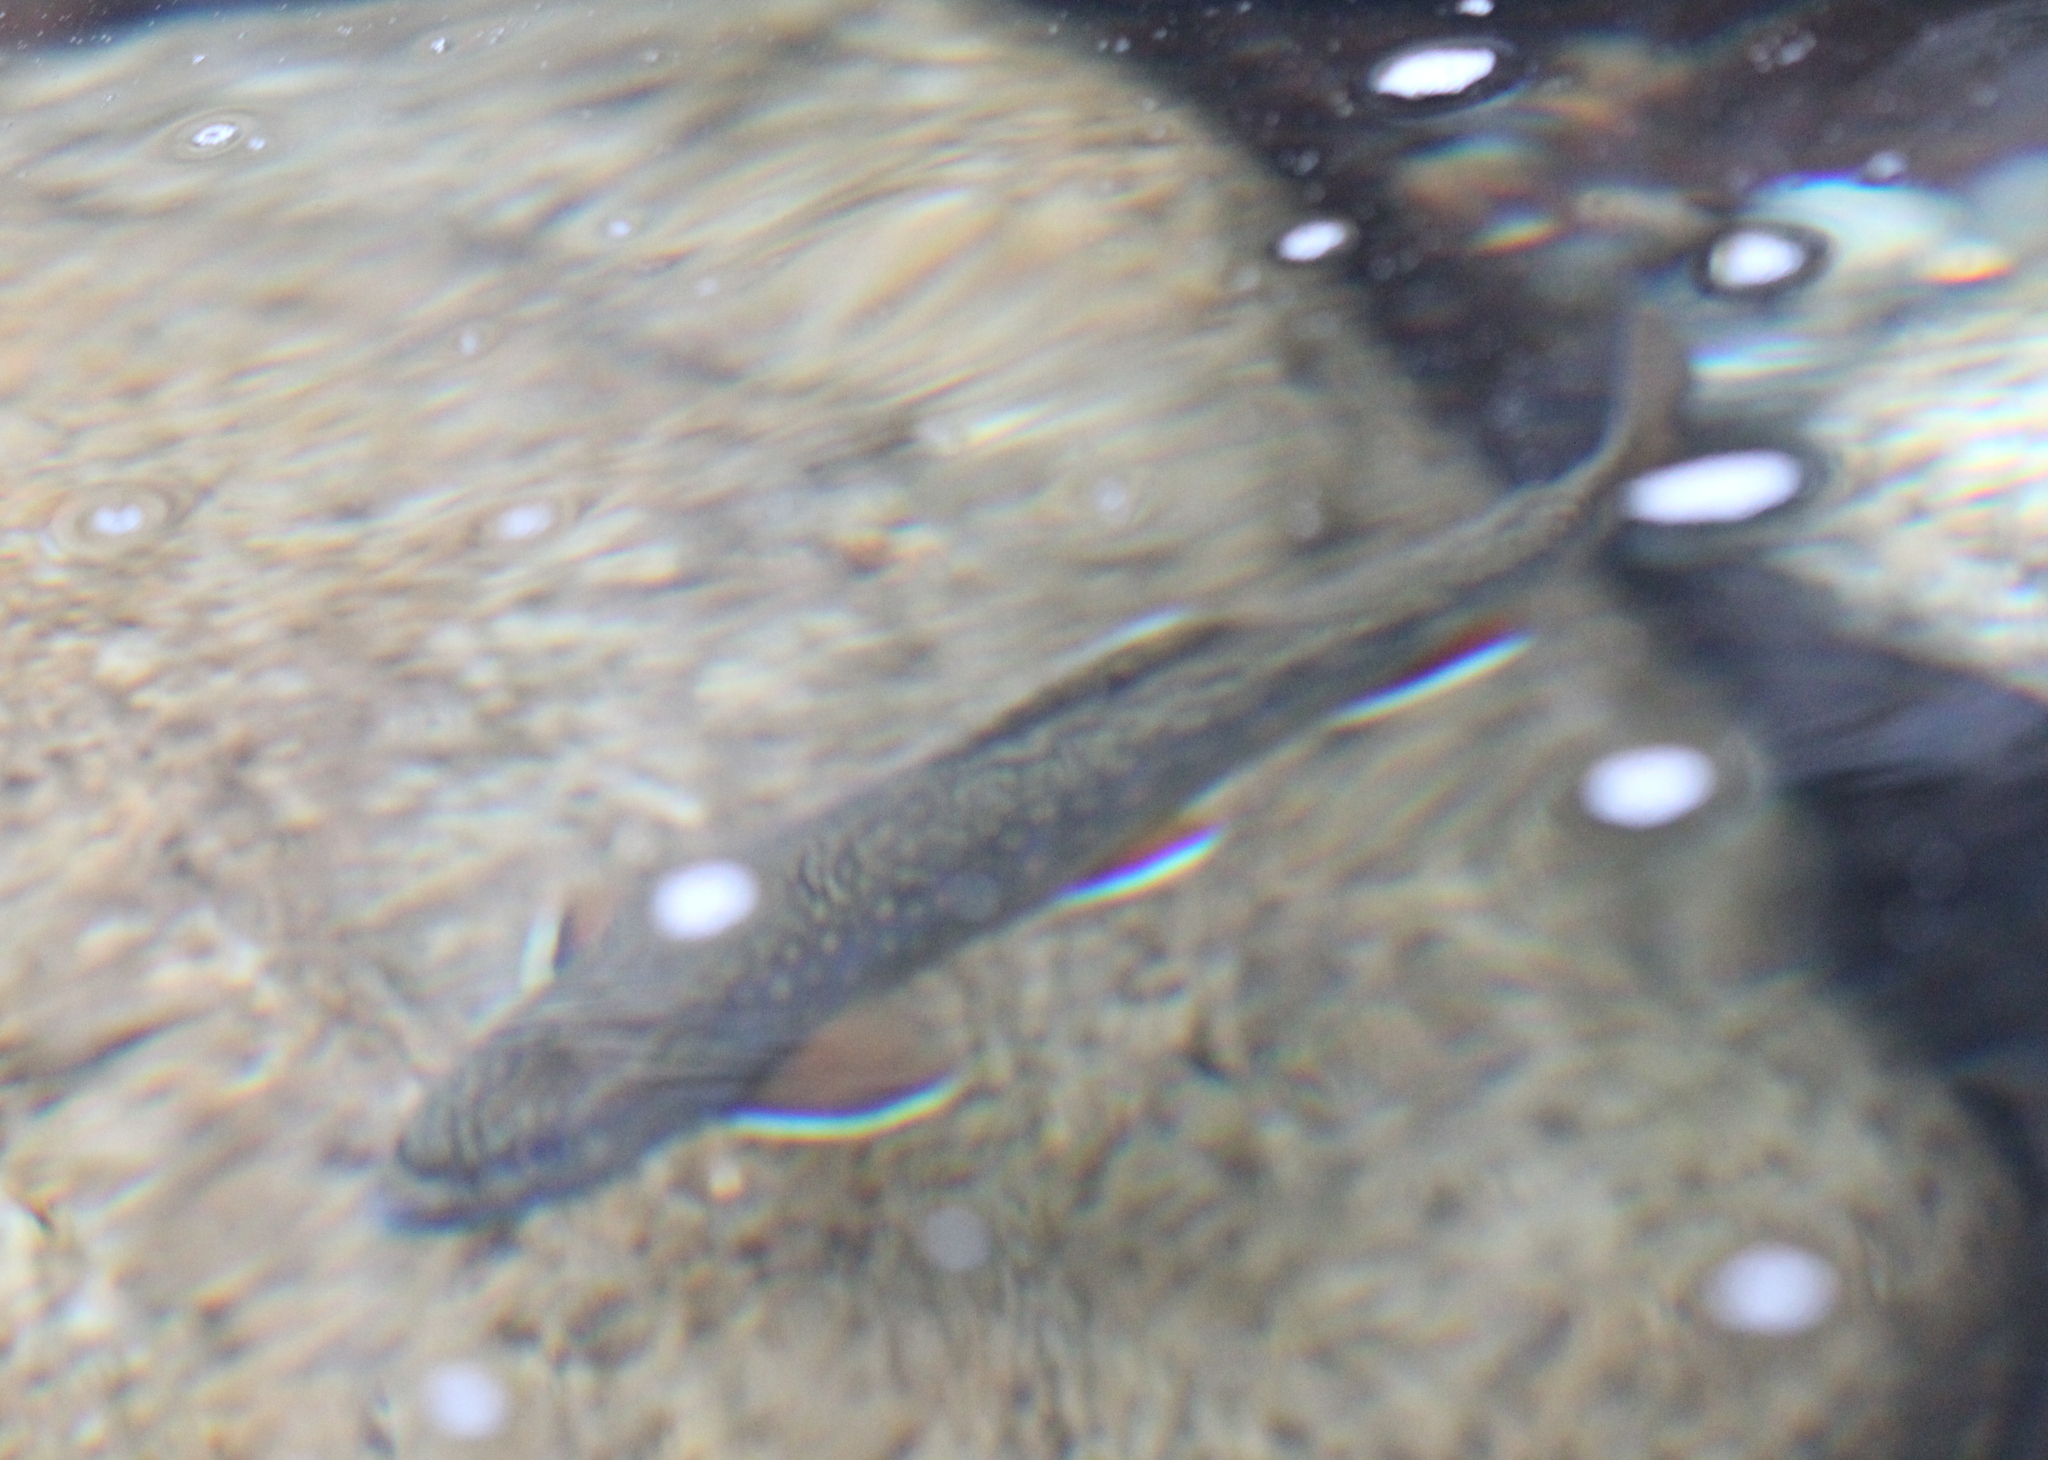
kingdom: Animalia
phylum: Chordata
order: Salmoniformes
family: Salmonidae
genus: Salvelinus
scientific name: Salvelinus fontinalis
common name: Brook trout
